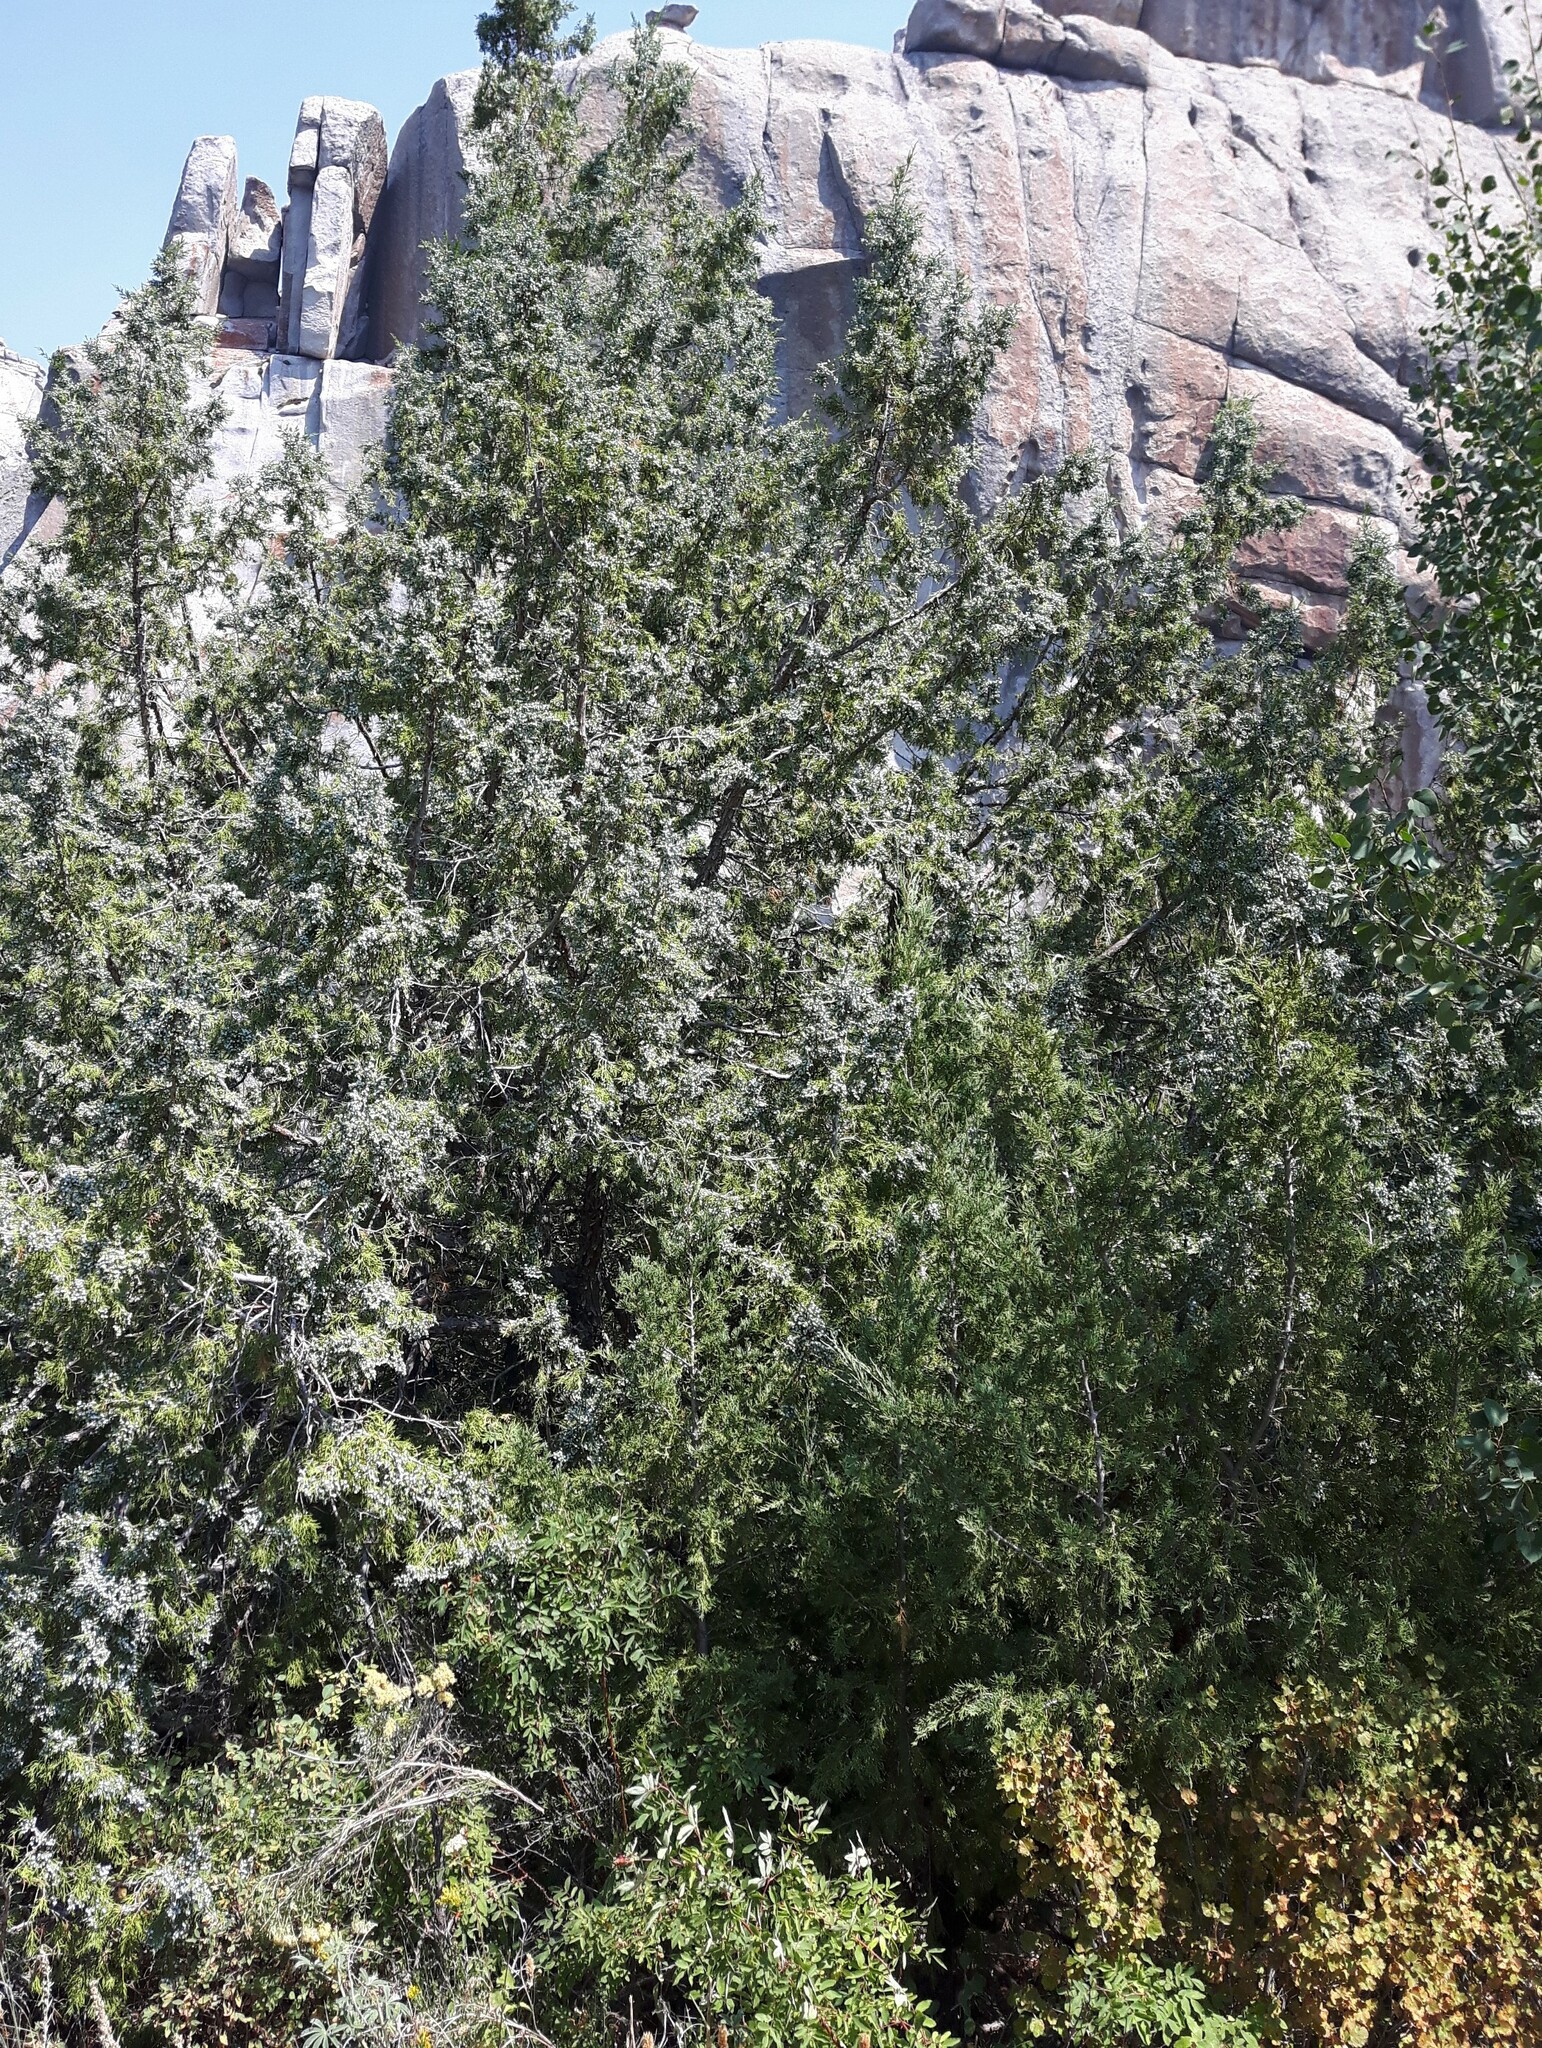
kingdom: Plantae
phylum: Tracheophyta
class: Pinopsida
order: Pinales
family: Cupressaceae
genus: Juniperus
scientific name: Juniperus scopulorum
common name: Rocky mountain juniper
